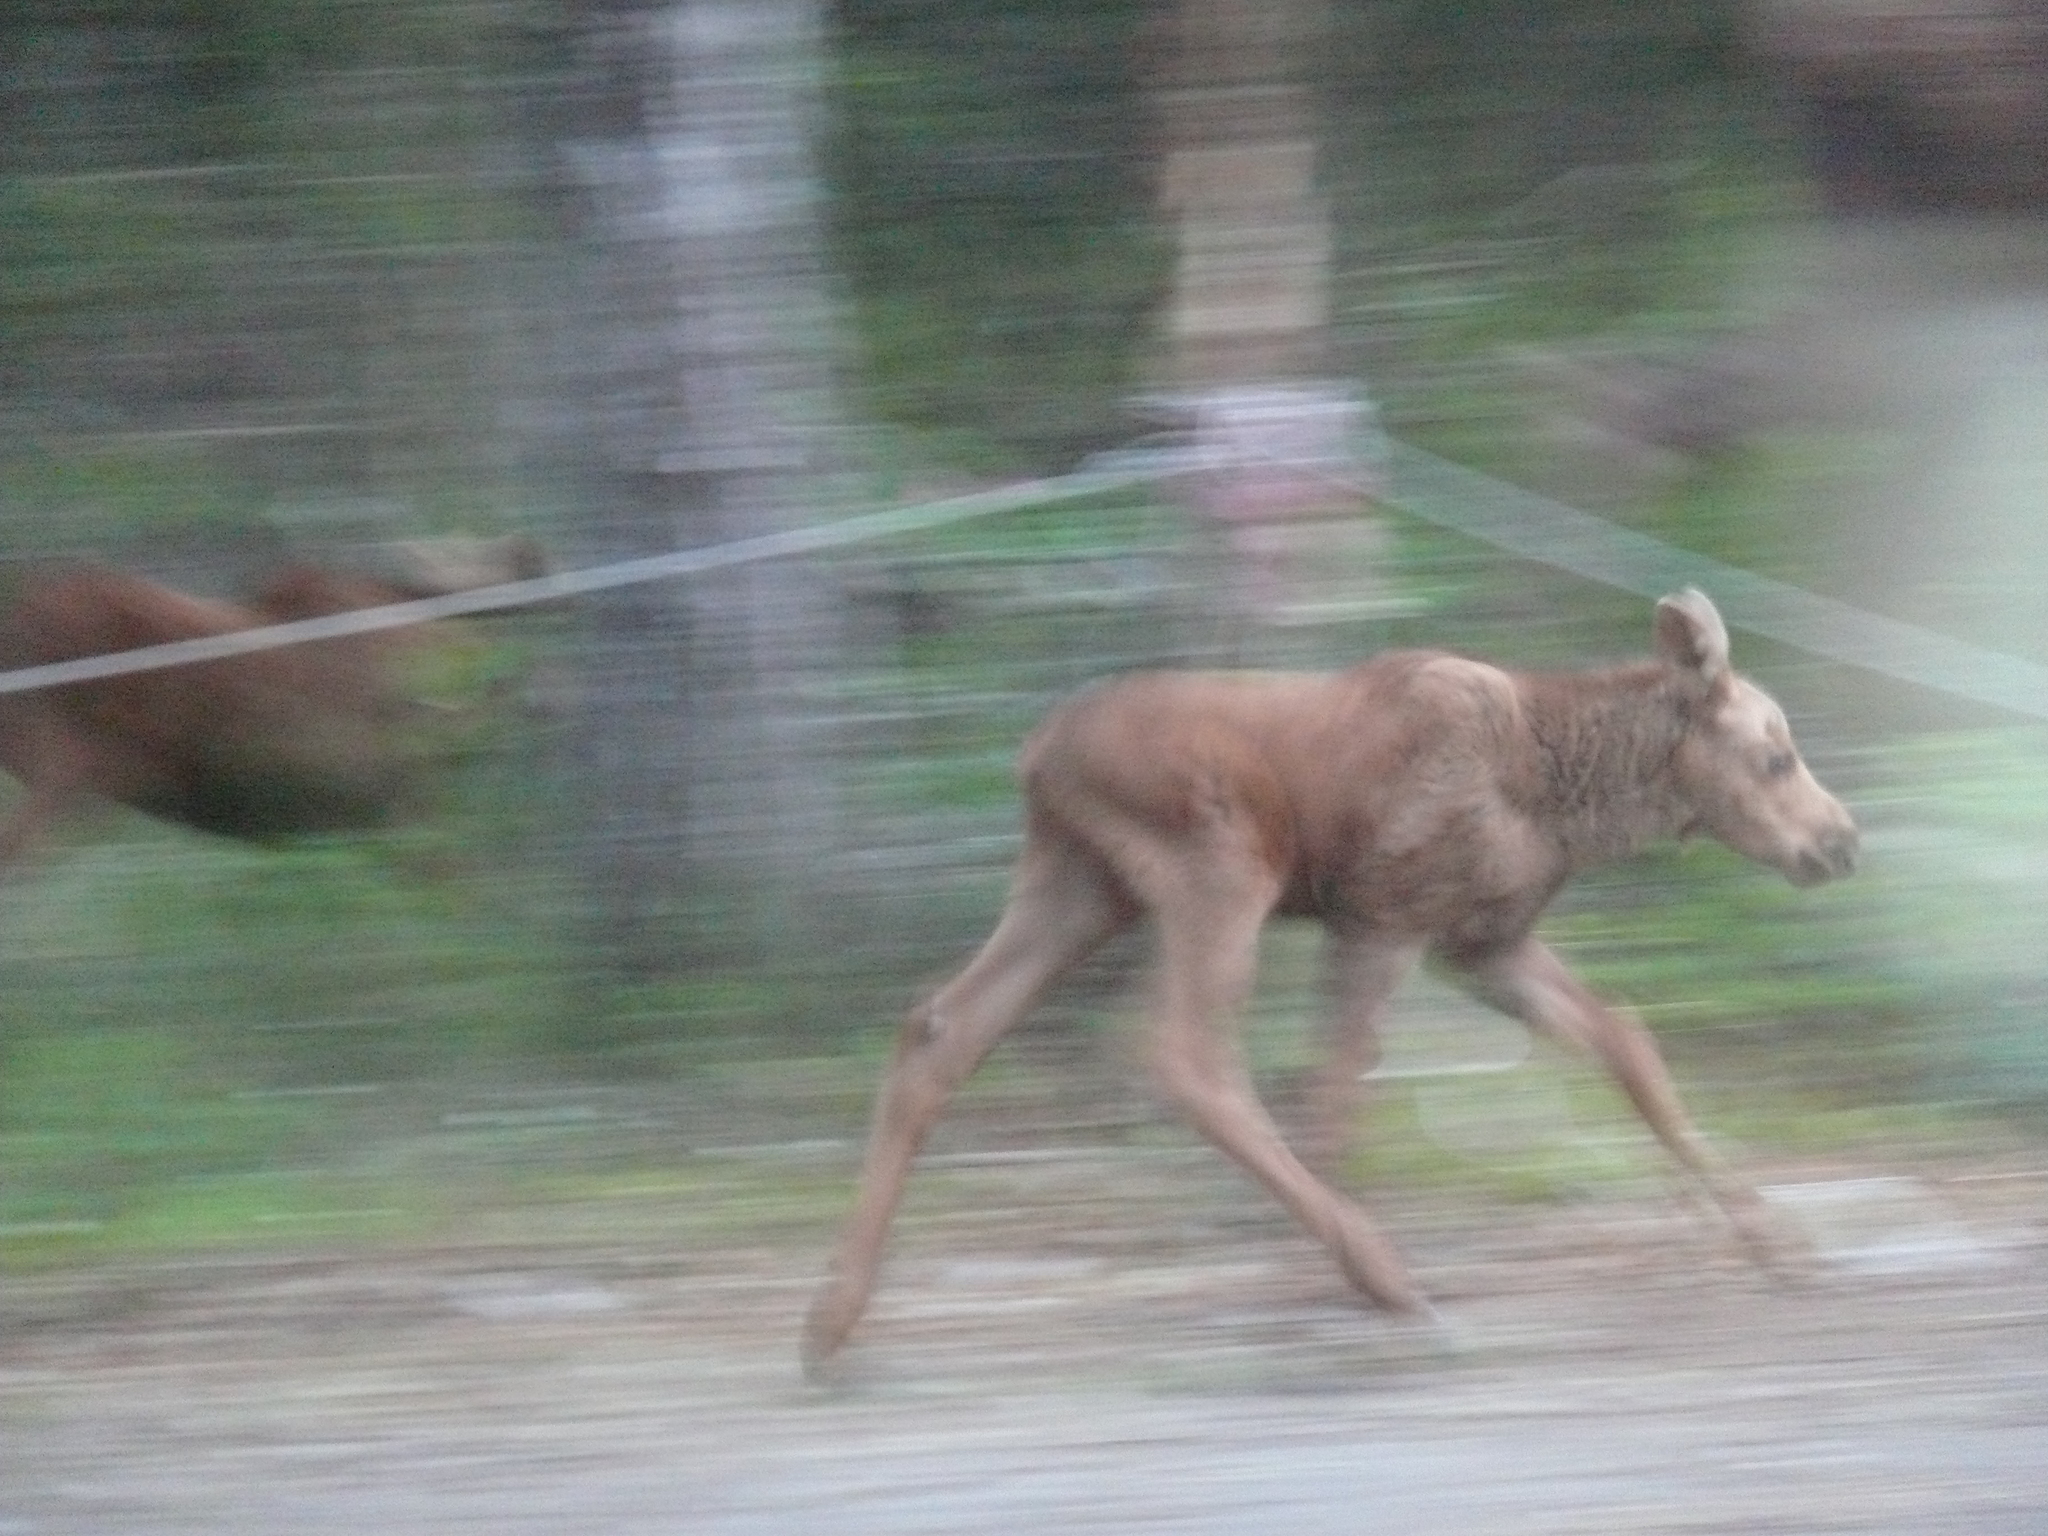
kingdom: Animalia
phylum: Chordata
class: Mammalia
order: Artiodactyla
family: Cervidae
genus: Alces
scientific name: Alces alces
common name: Moose
